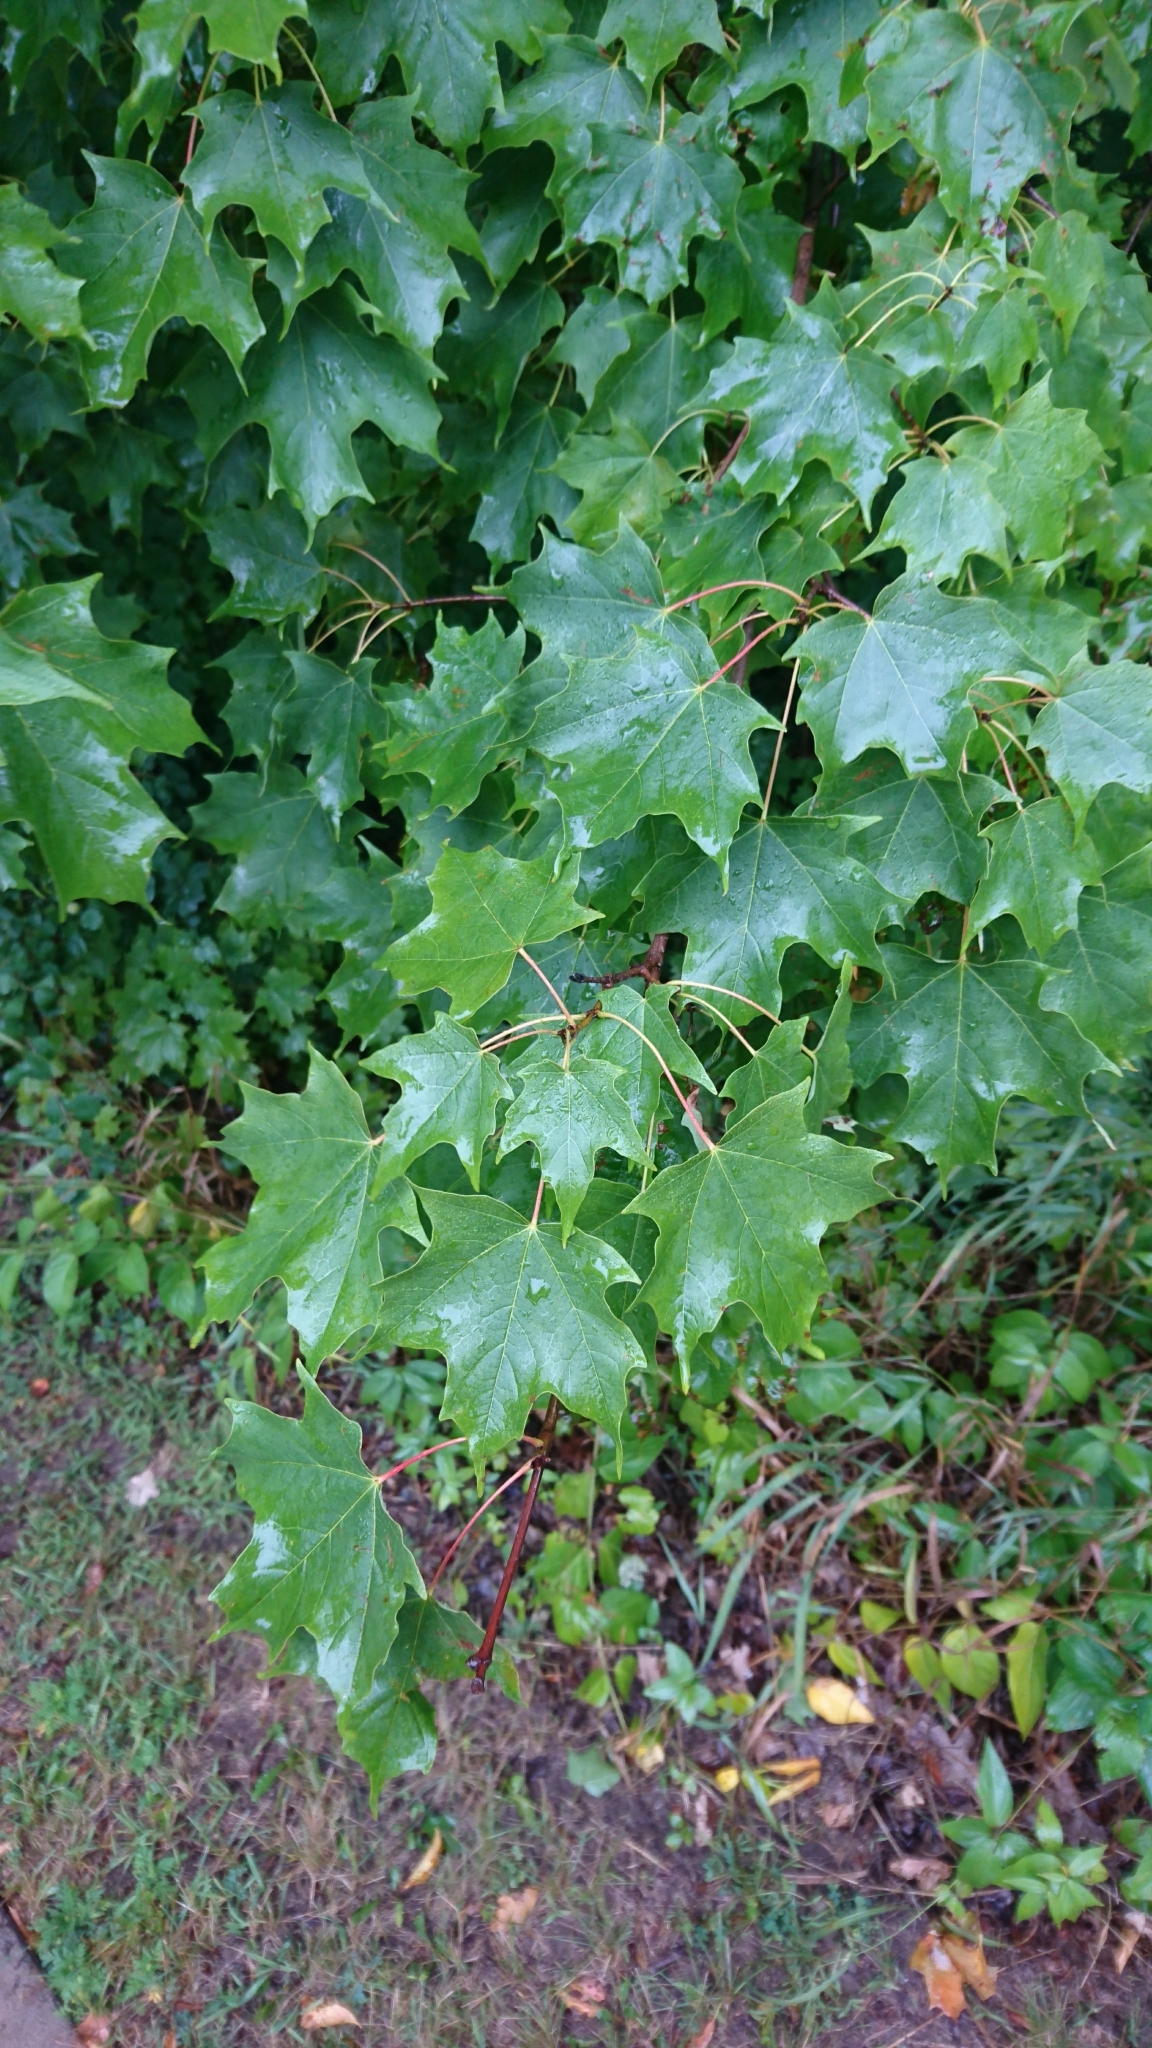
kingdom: Plantae
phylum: Tracheophyta
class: Magnoliopsida
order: Sapindales
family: Sapindaceae
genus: Acer
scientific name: Acer saccharum
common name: Sugar maple
